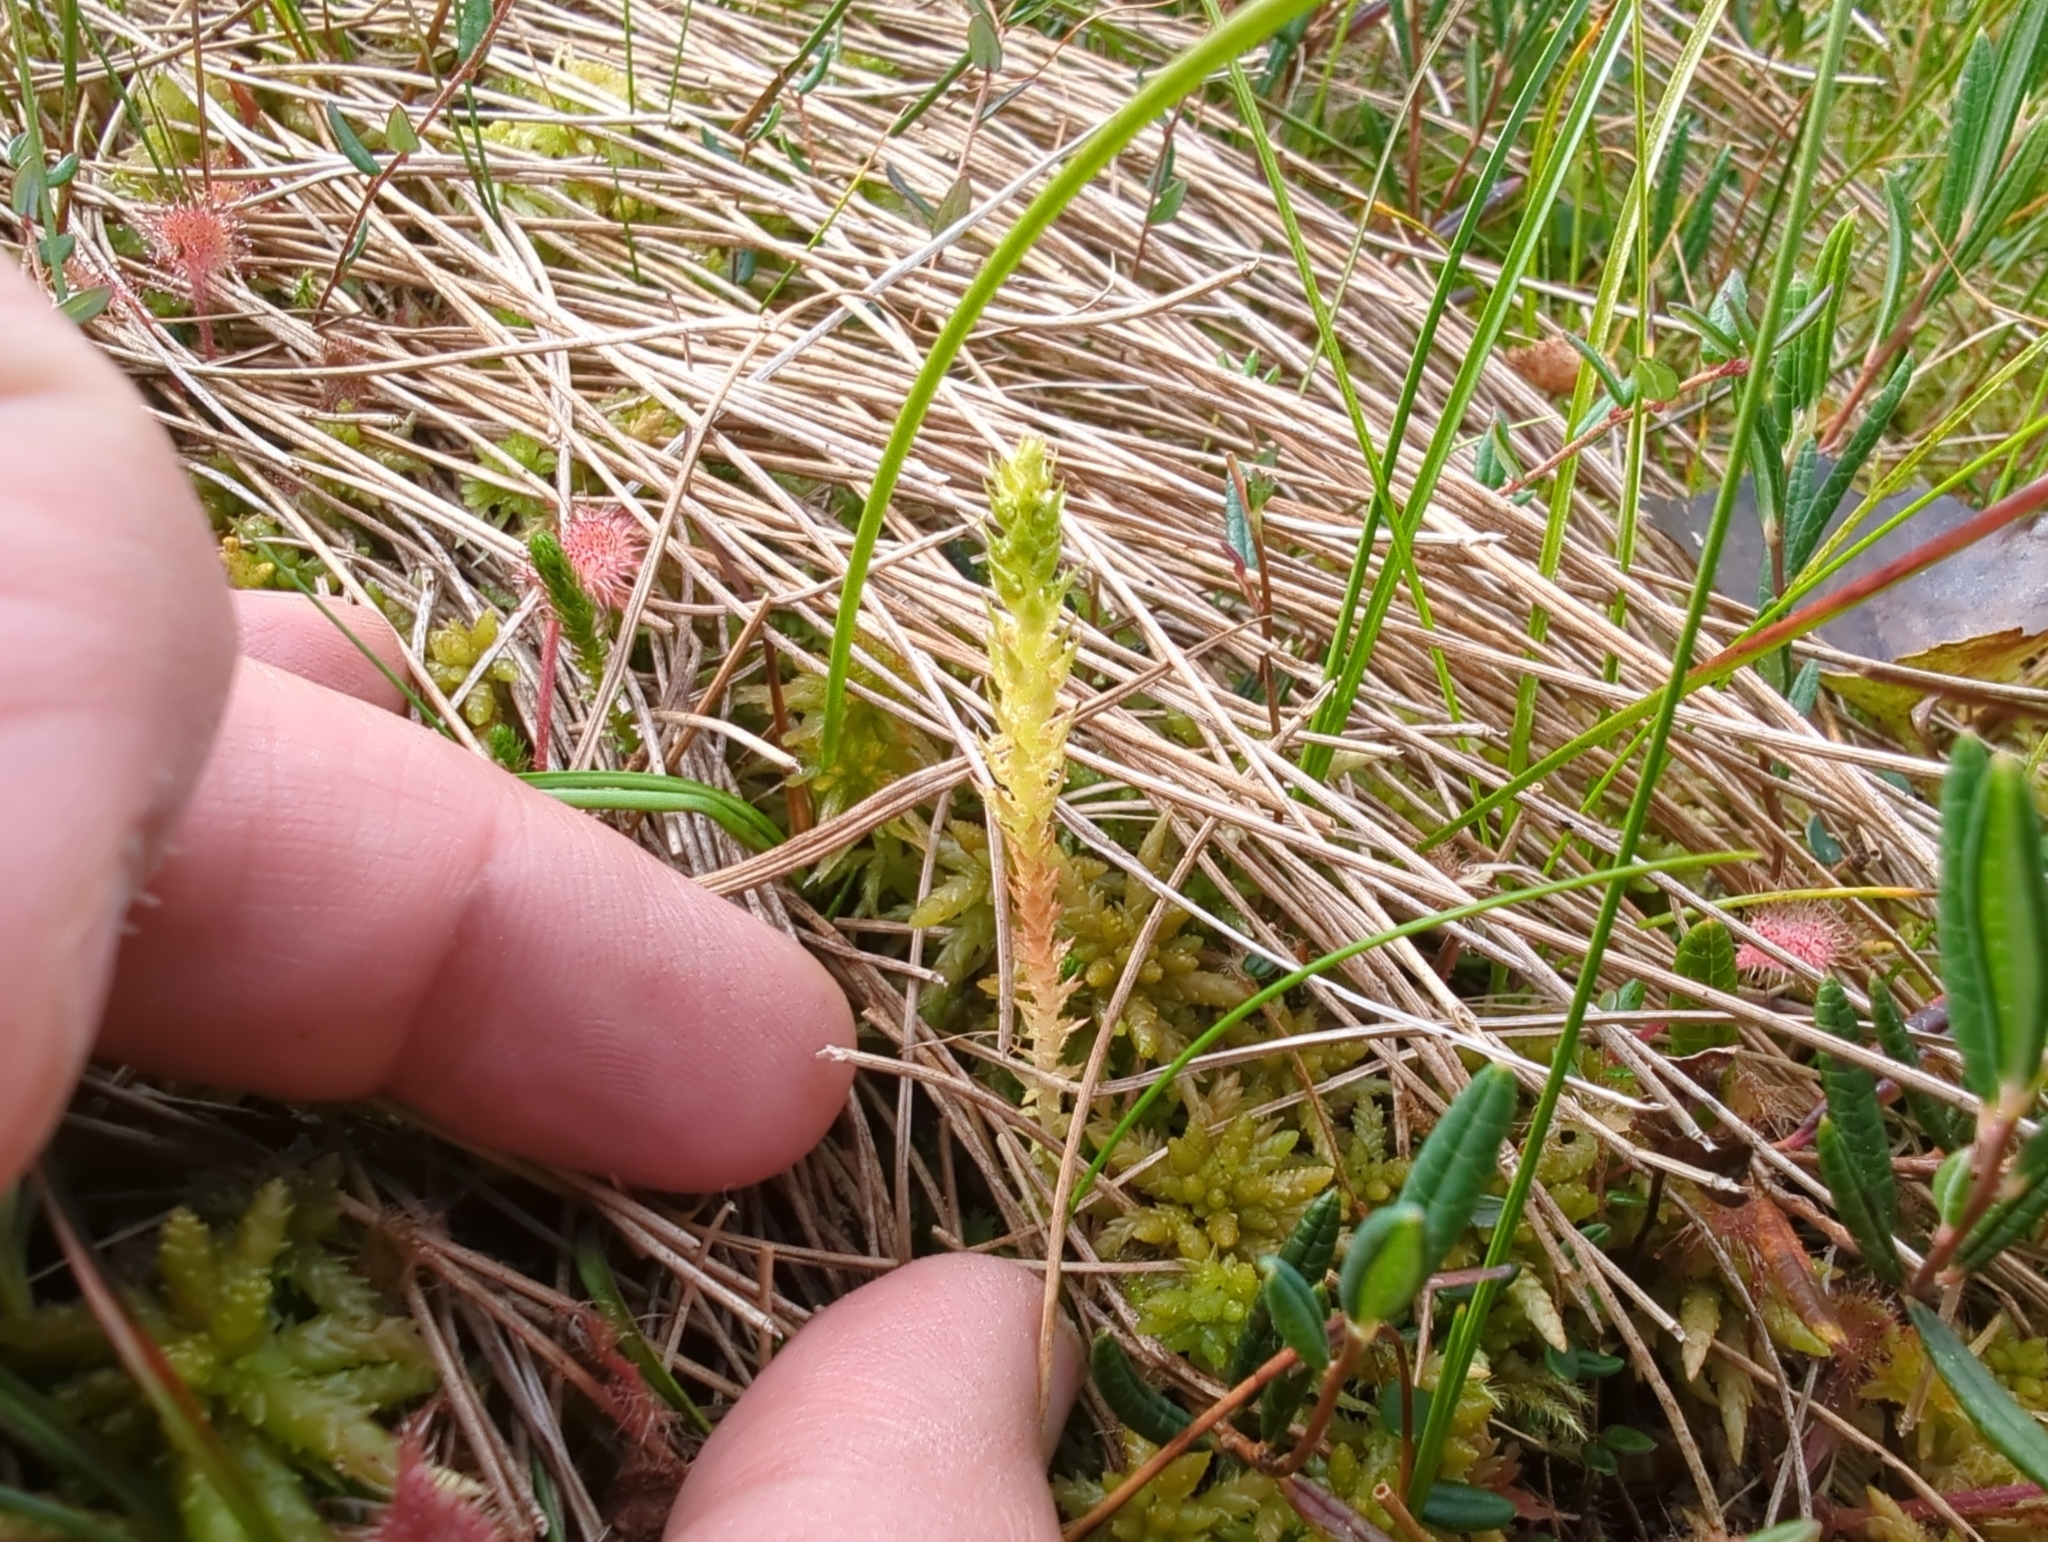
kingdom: Plantae
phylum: Tracheophyta
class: Lycopodiopsida
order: Selaginellales
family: Selaginellaceae
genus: Selaginella
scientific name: Selaginella selaginoides
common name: Prickly mountain-moss
